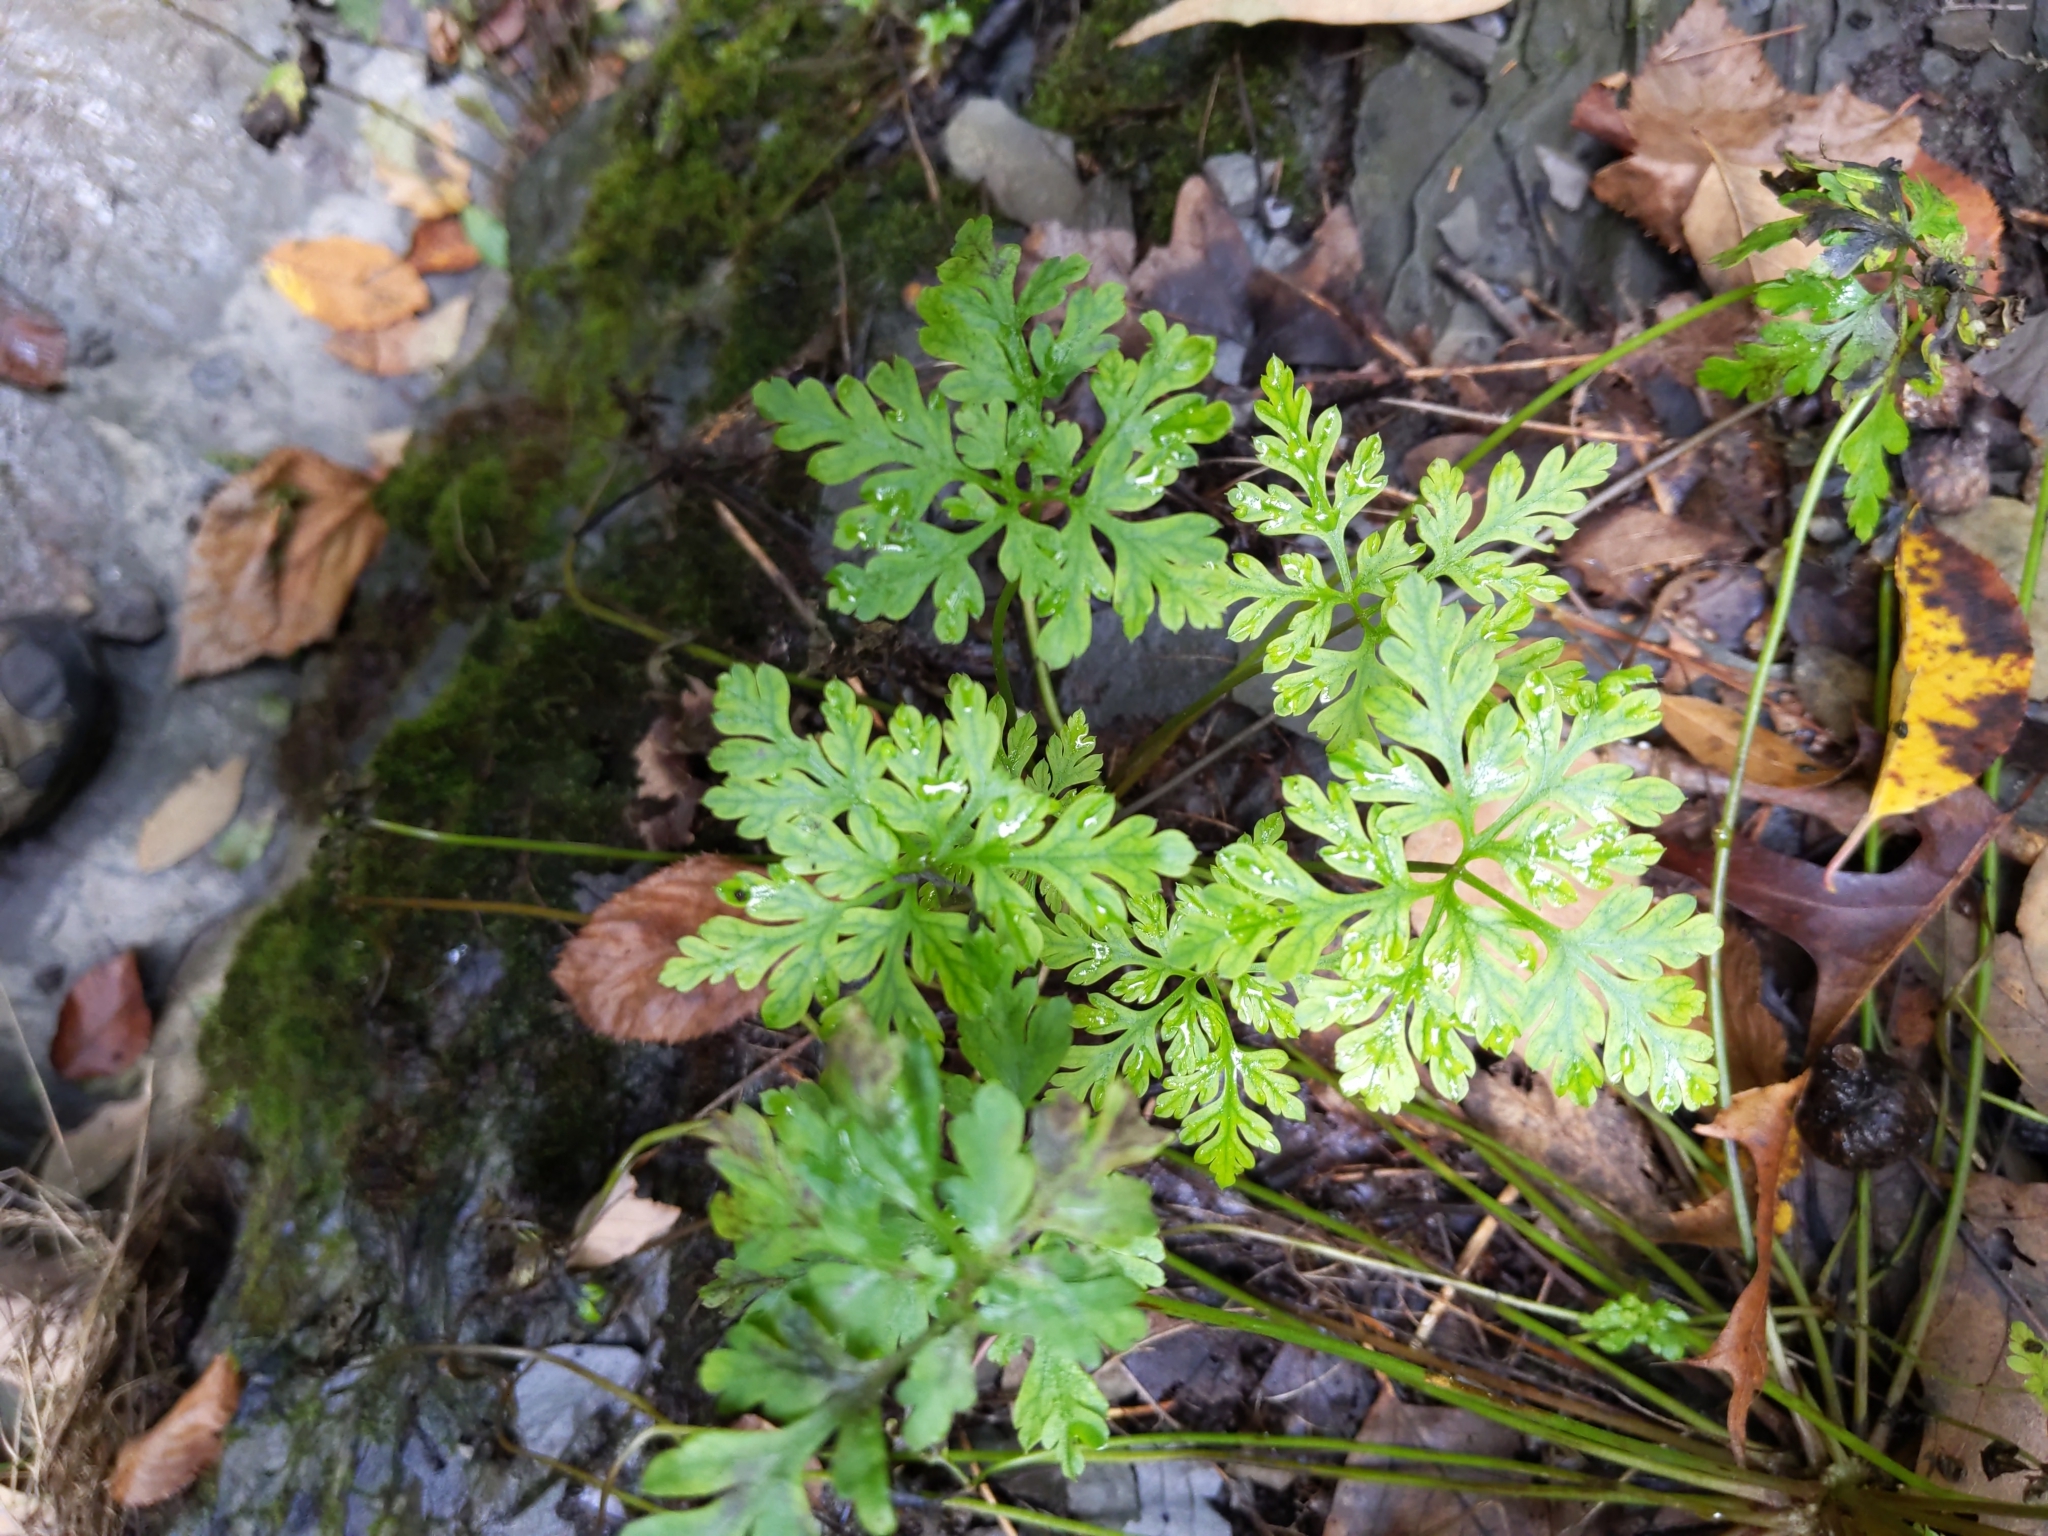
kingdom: Plantae
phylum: Tracheophyta
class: Magnoliopsida
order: Geraniales
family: Geraniaceae
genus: Geranium
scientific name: Geranium robertianum
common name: Herb-robert
